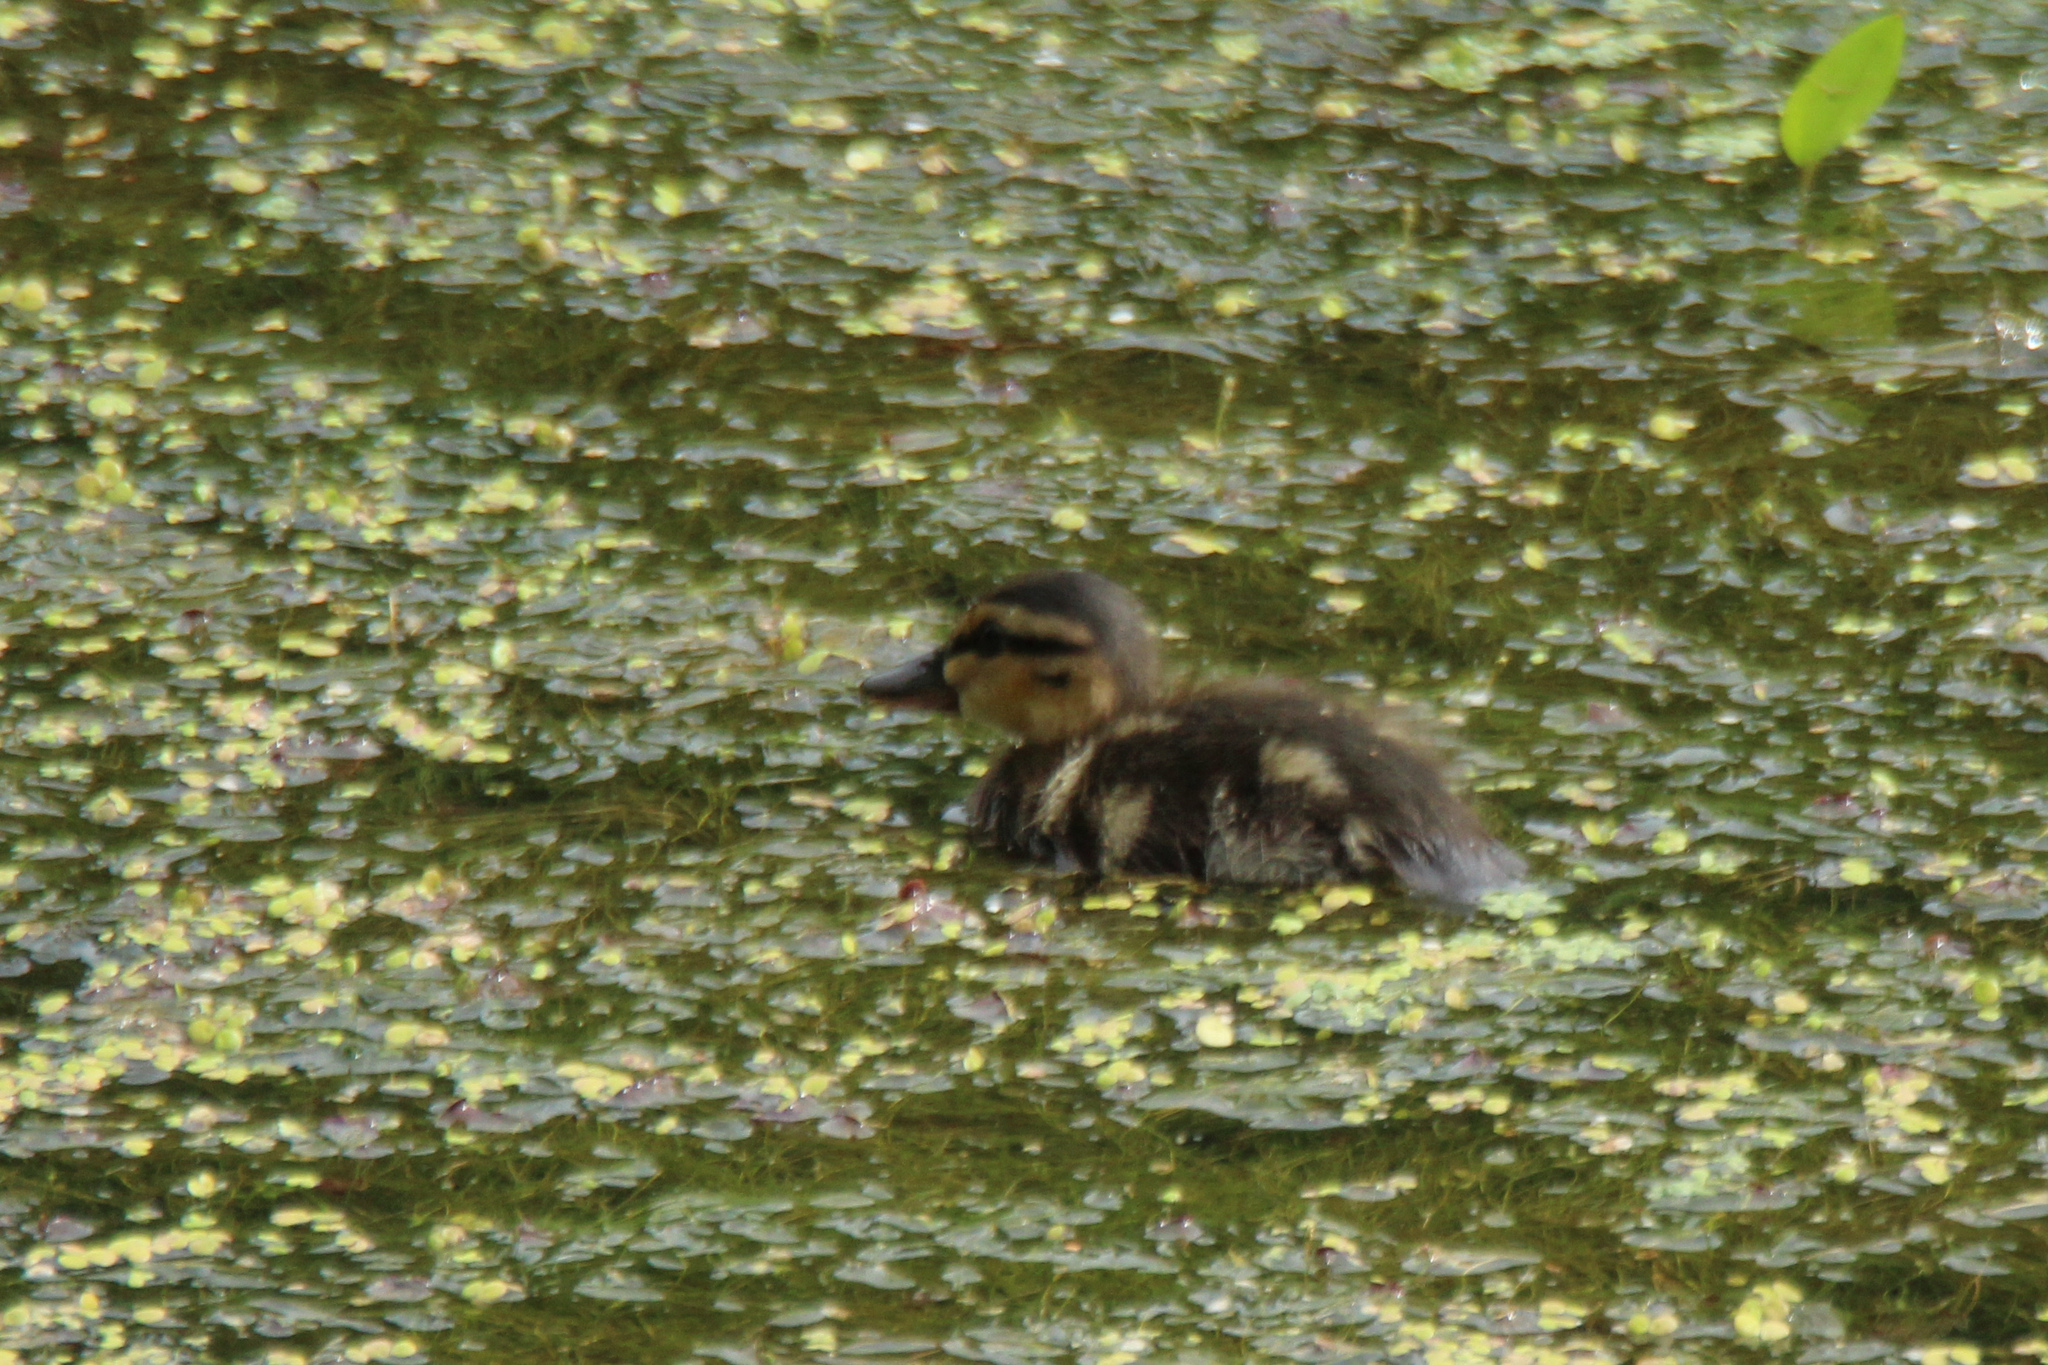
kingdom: Animalia
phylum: Chordata
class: Aves
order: Anseriformes
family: Anatidae
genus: Anas
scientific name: Anas platyrhynchos
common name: Mallard
